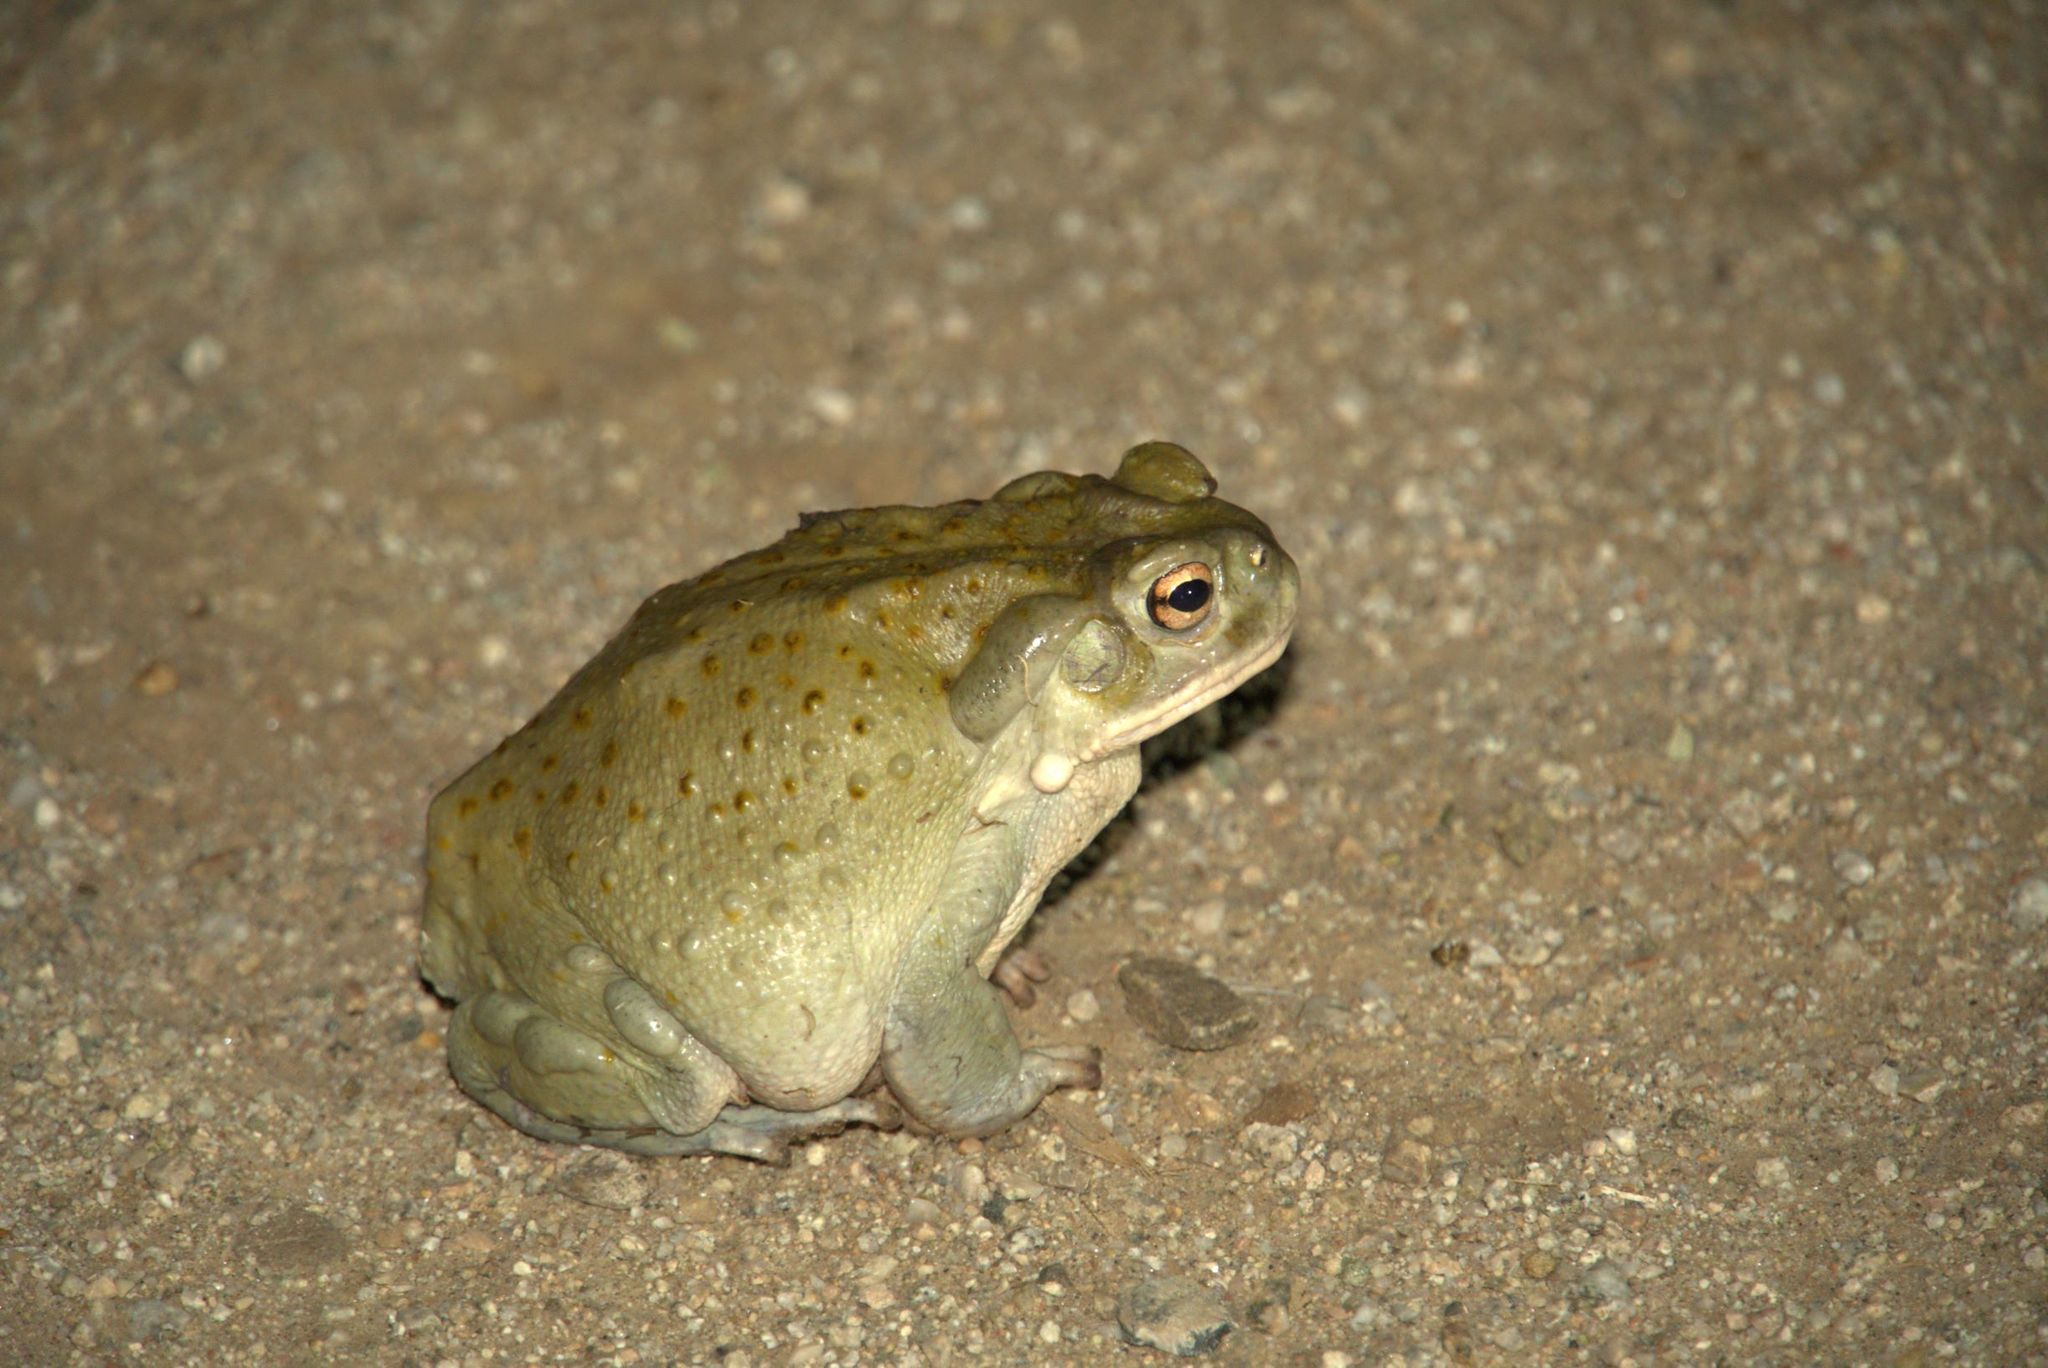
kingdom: Animalia
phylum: Chordata
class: Amphibia
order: Anura
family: Bufonidae
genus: Incilius
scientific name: Incilius alvarius
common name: Sonoran desert toad
